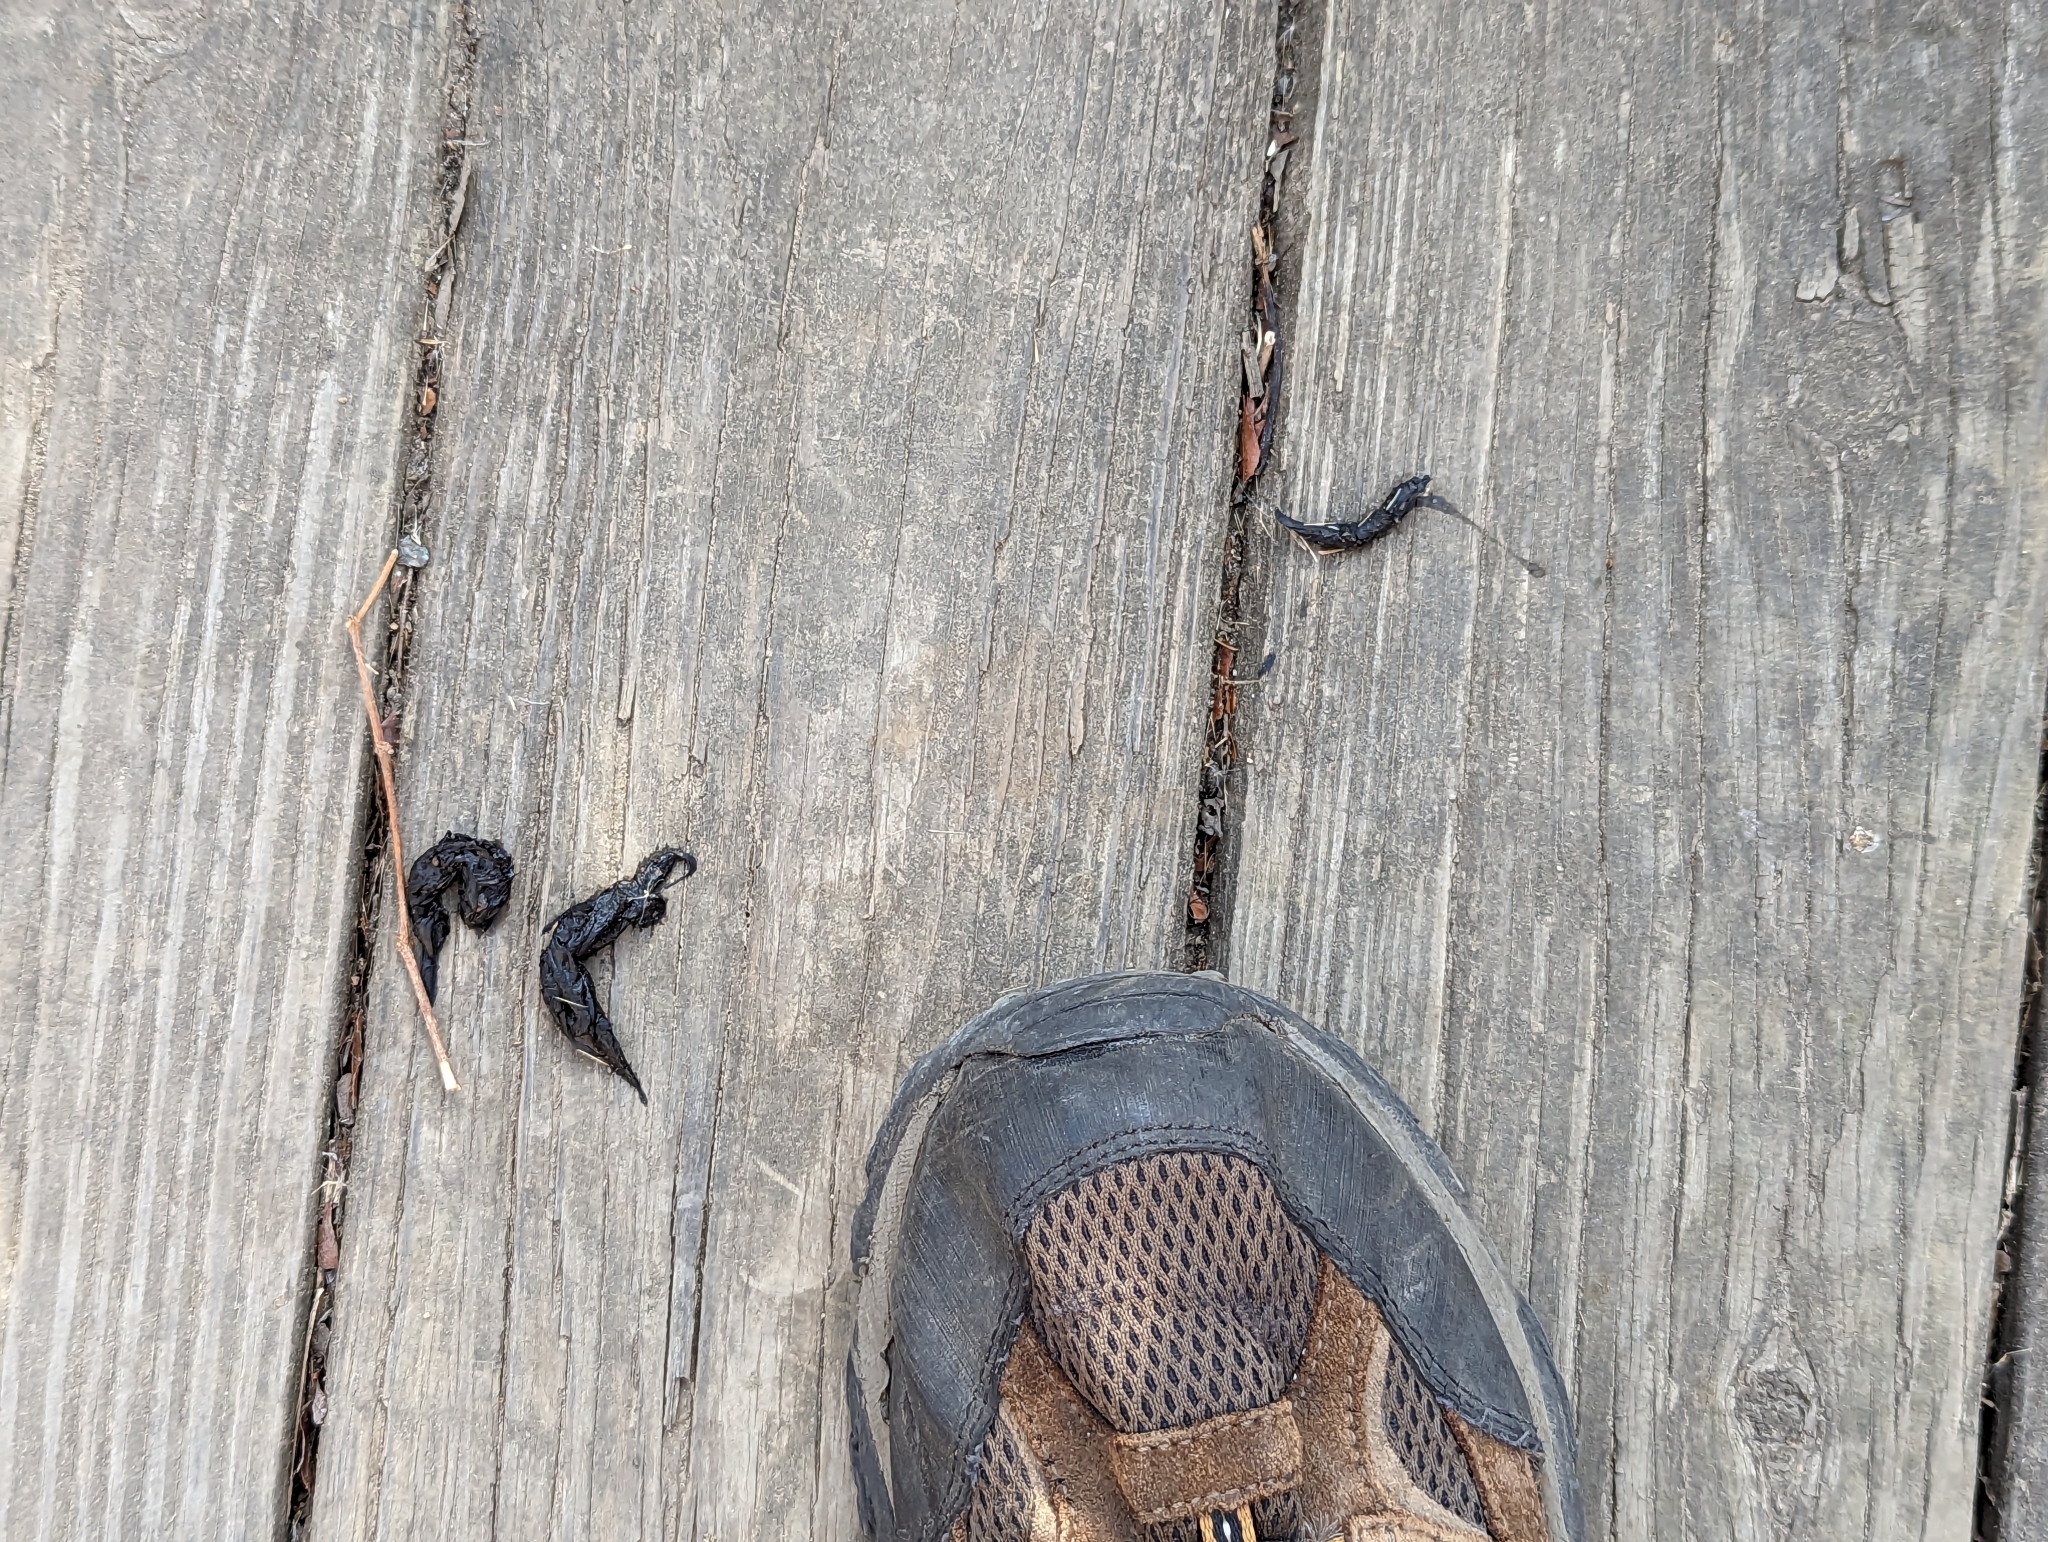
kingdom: Animalia
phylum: Chordata
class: Mammalia
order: Carnivora
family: Mustelidae
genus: Mustela
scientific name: Mustela
